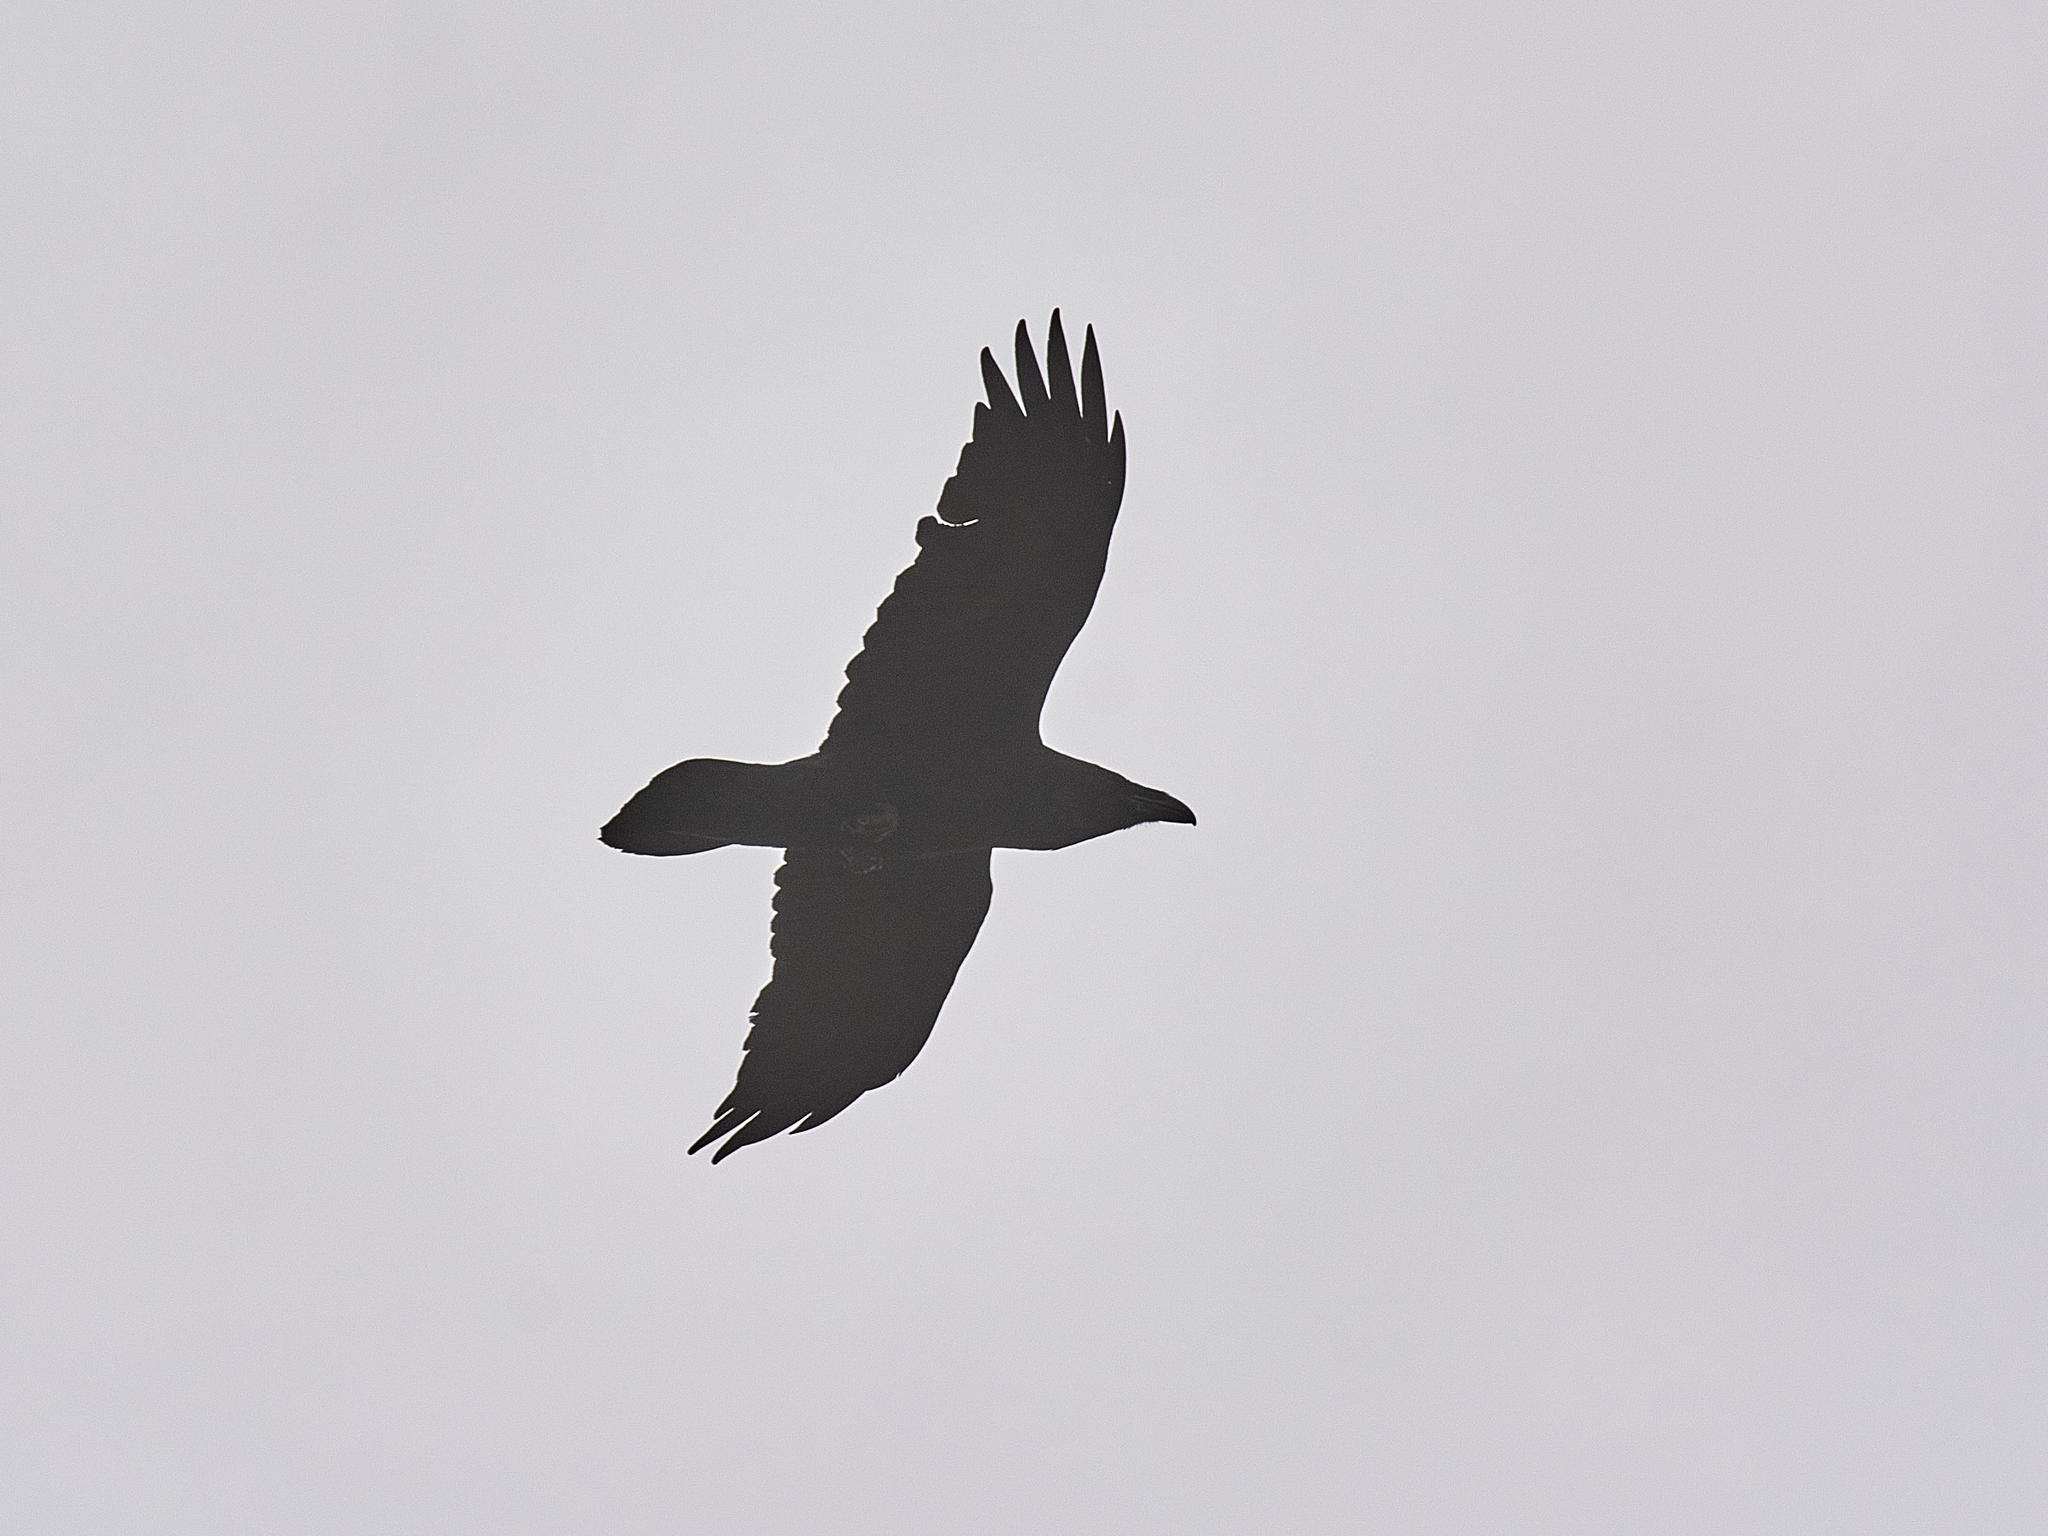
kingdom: Animalia
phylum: Chordata
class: Aves
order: Passeriformes
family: Corvidae
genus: Corvus
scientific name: Corvus corax
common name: Common raven
